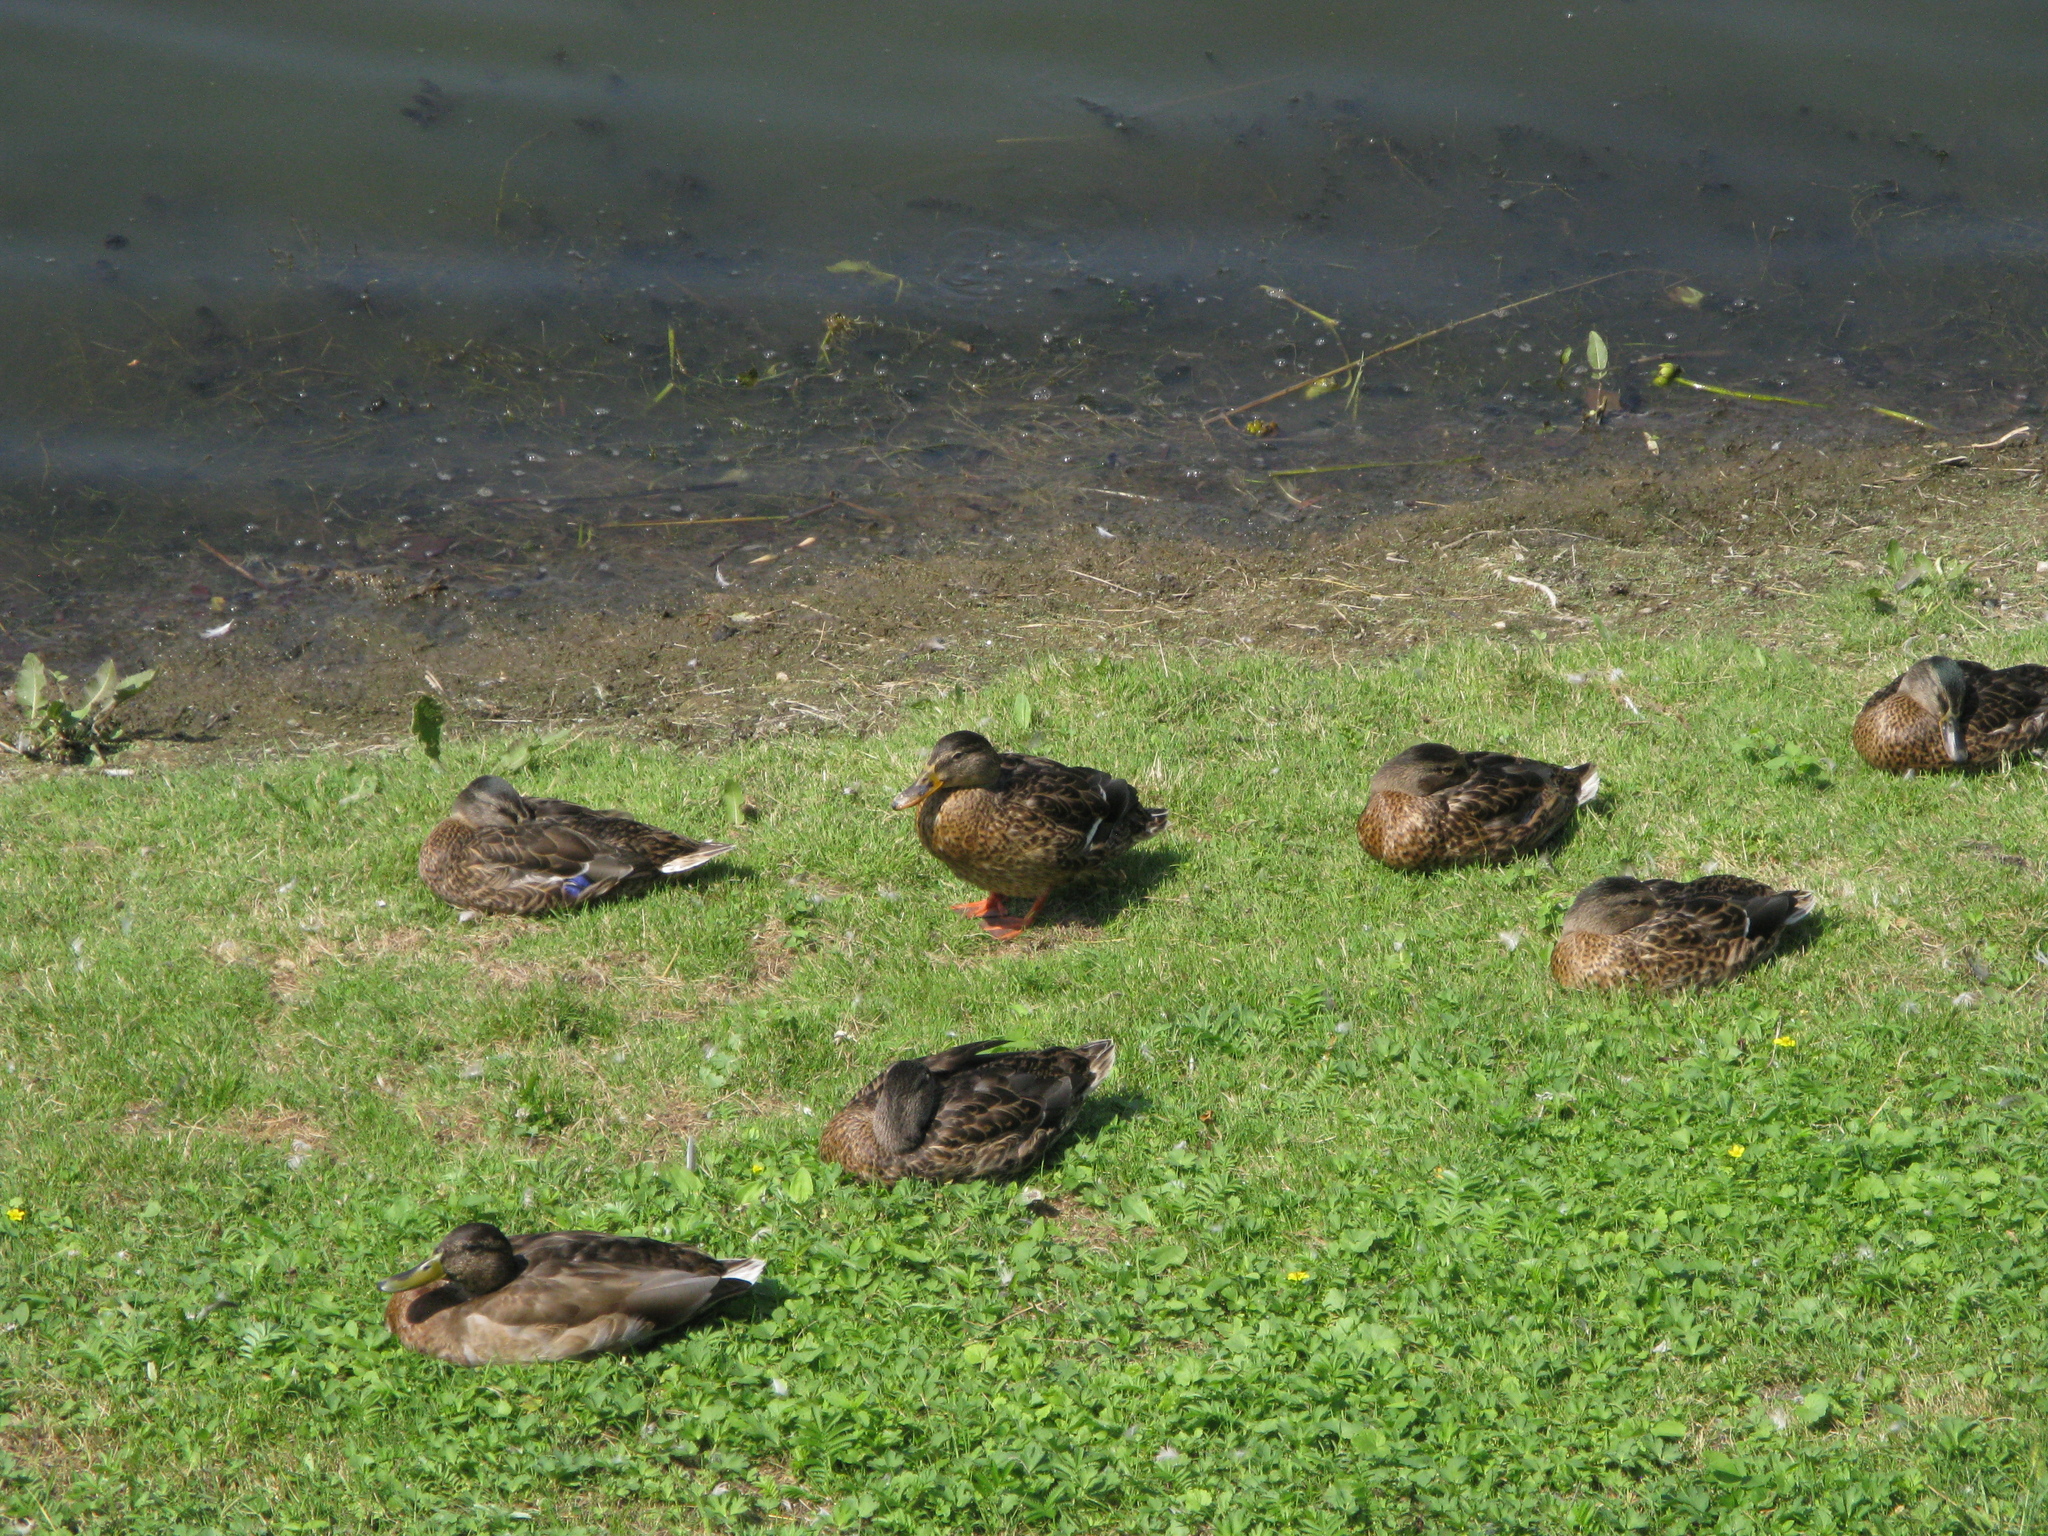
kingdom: Animalia
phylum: Chordata
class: Aves
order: Anseriformes
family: Anatidae
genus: Anas
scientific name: Anas platyrhynchos
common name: Mallard
